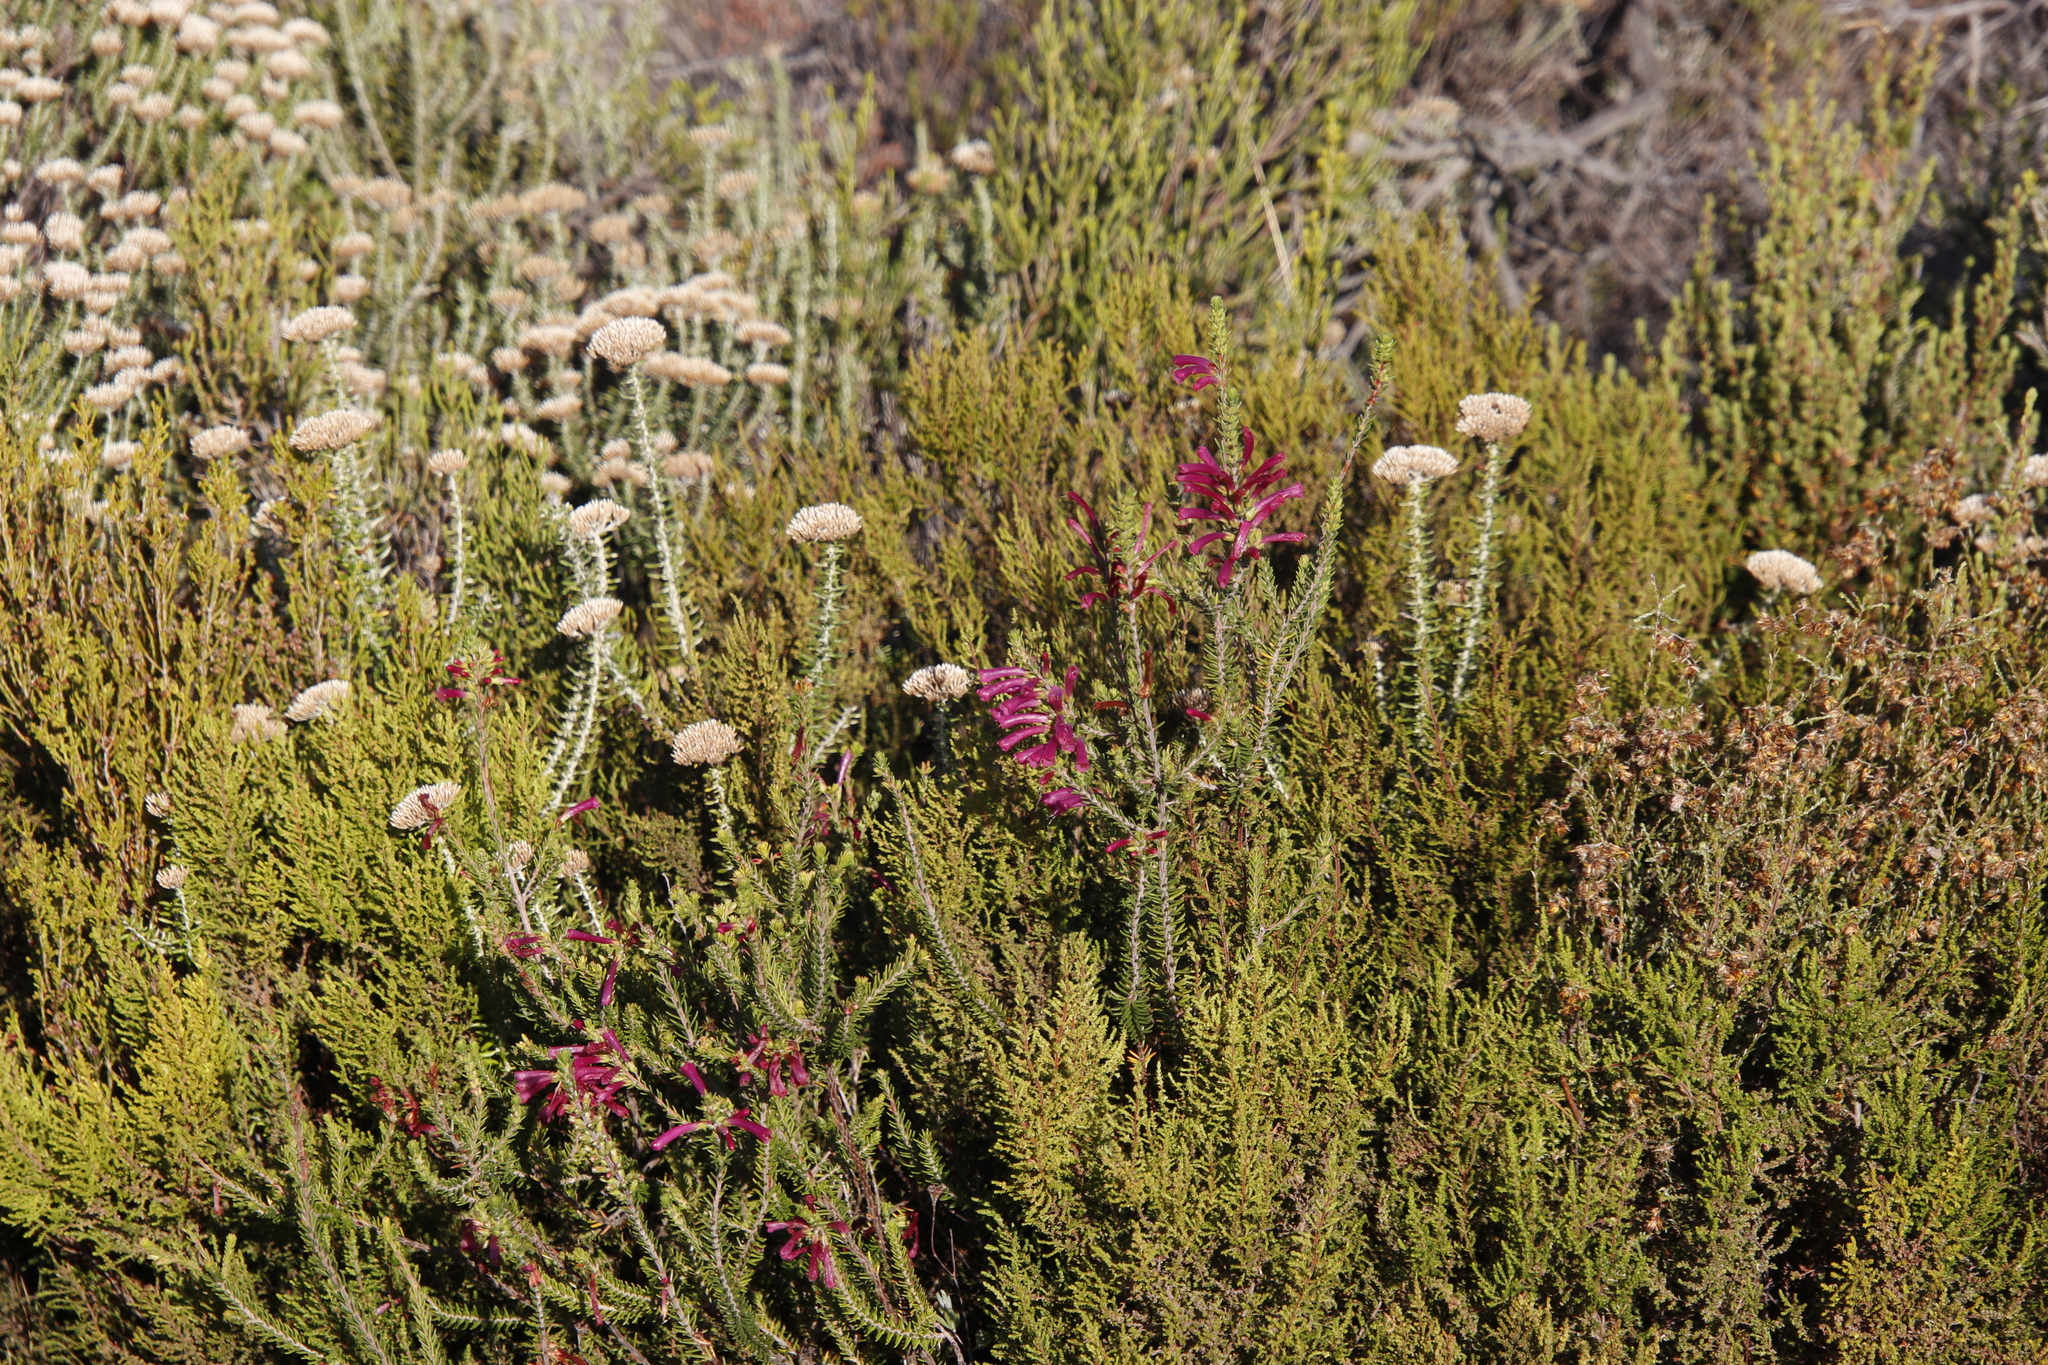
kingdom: Plantae
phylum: Tracheophyta
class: Magnoliopsida
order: Ericales
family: Ericaceae
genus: Erica
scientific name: Erica abietina
